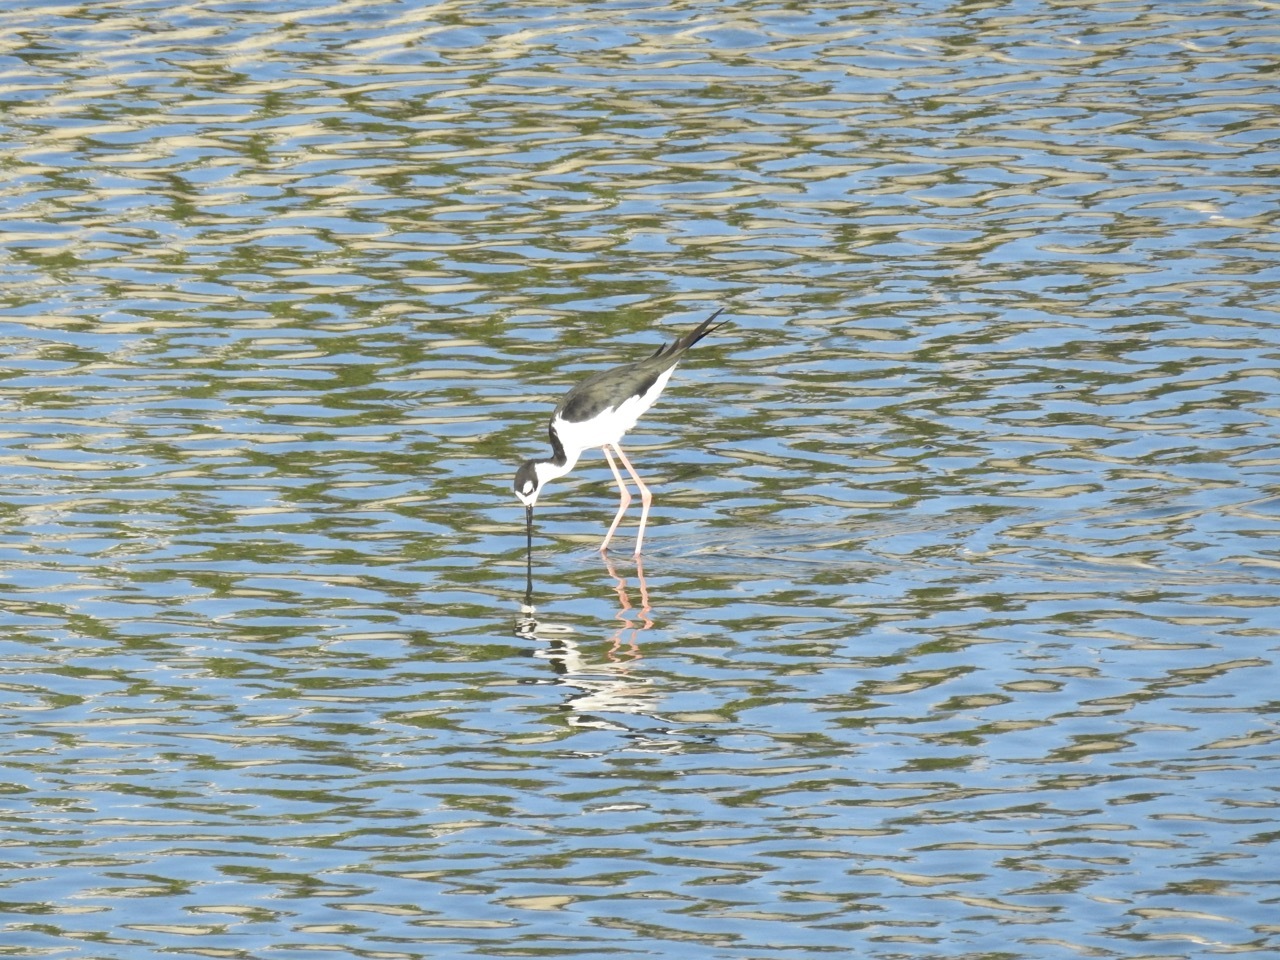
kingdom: Animalia
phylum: Chordata
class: Aves
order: Charadriiformes
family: Recurvirostridae
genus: Himantopus
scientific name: Himantopus mexicanus
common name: Black-necked stilt
